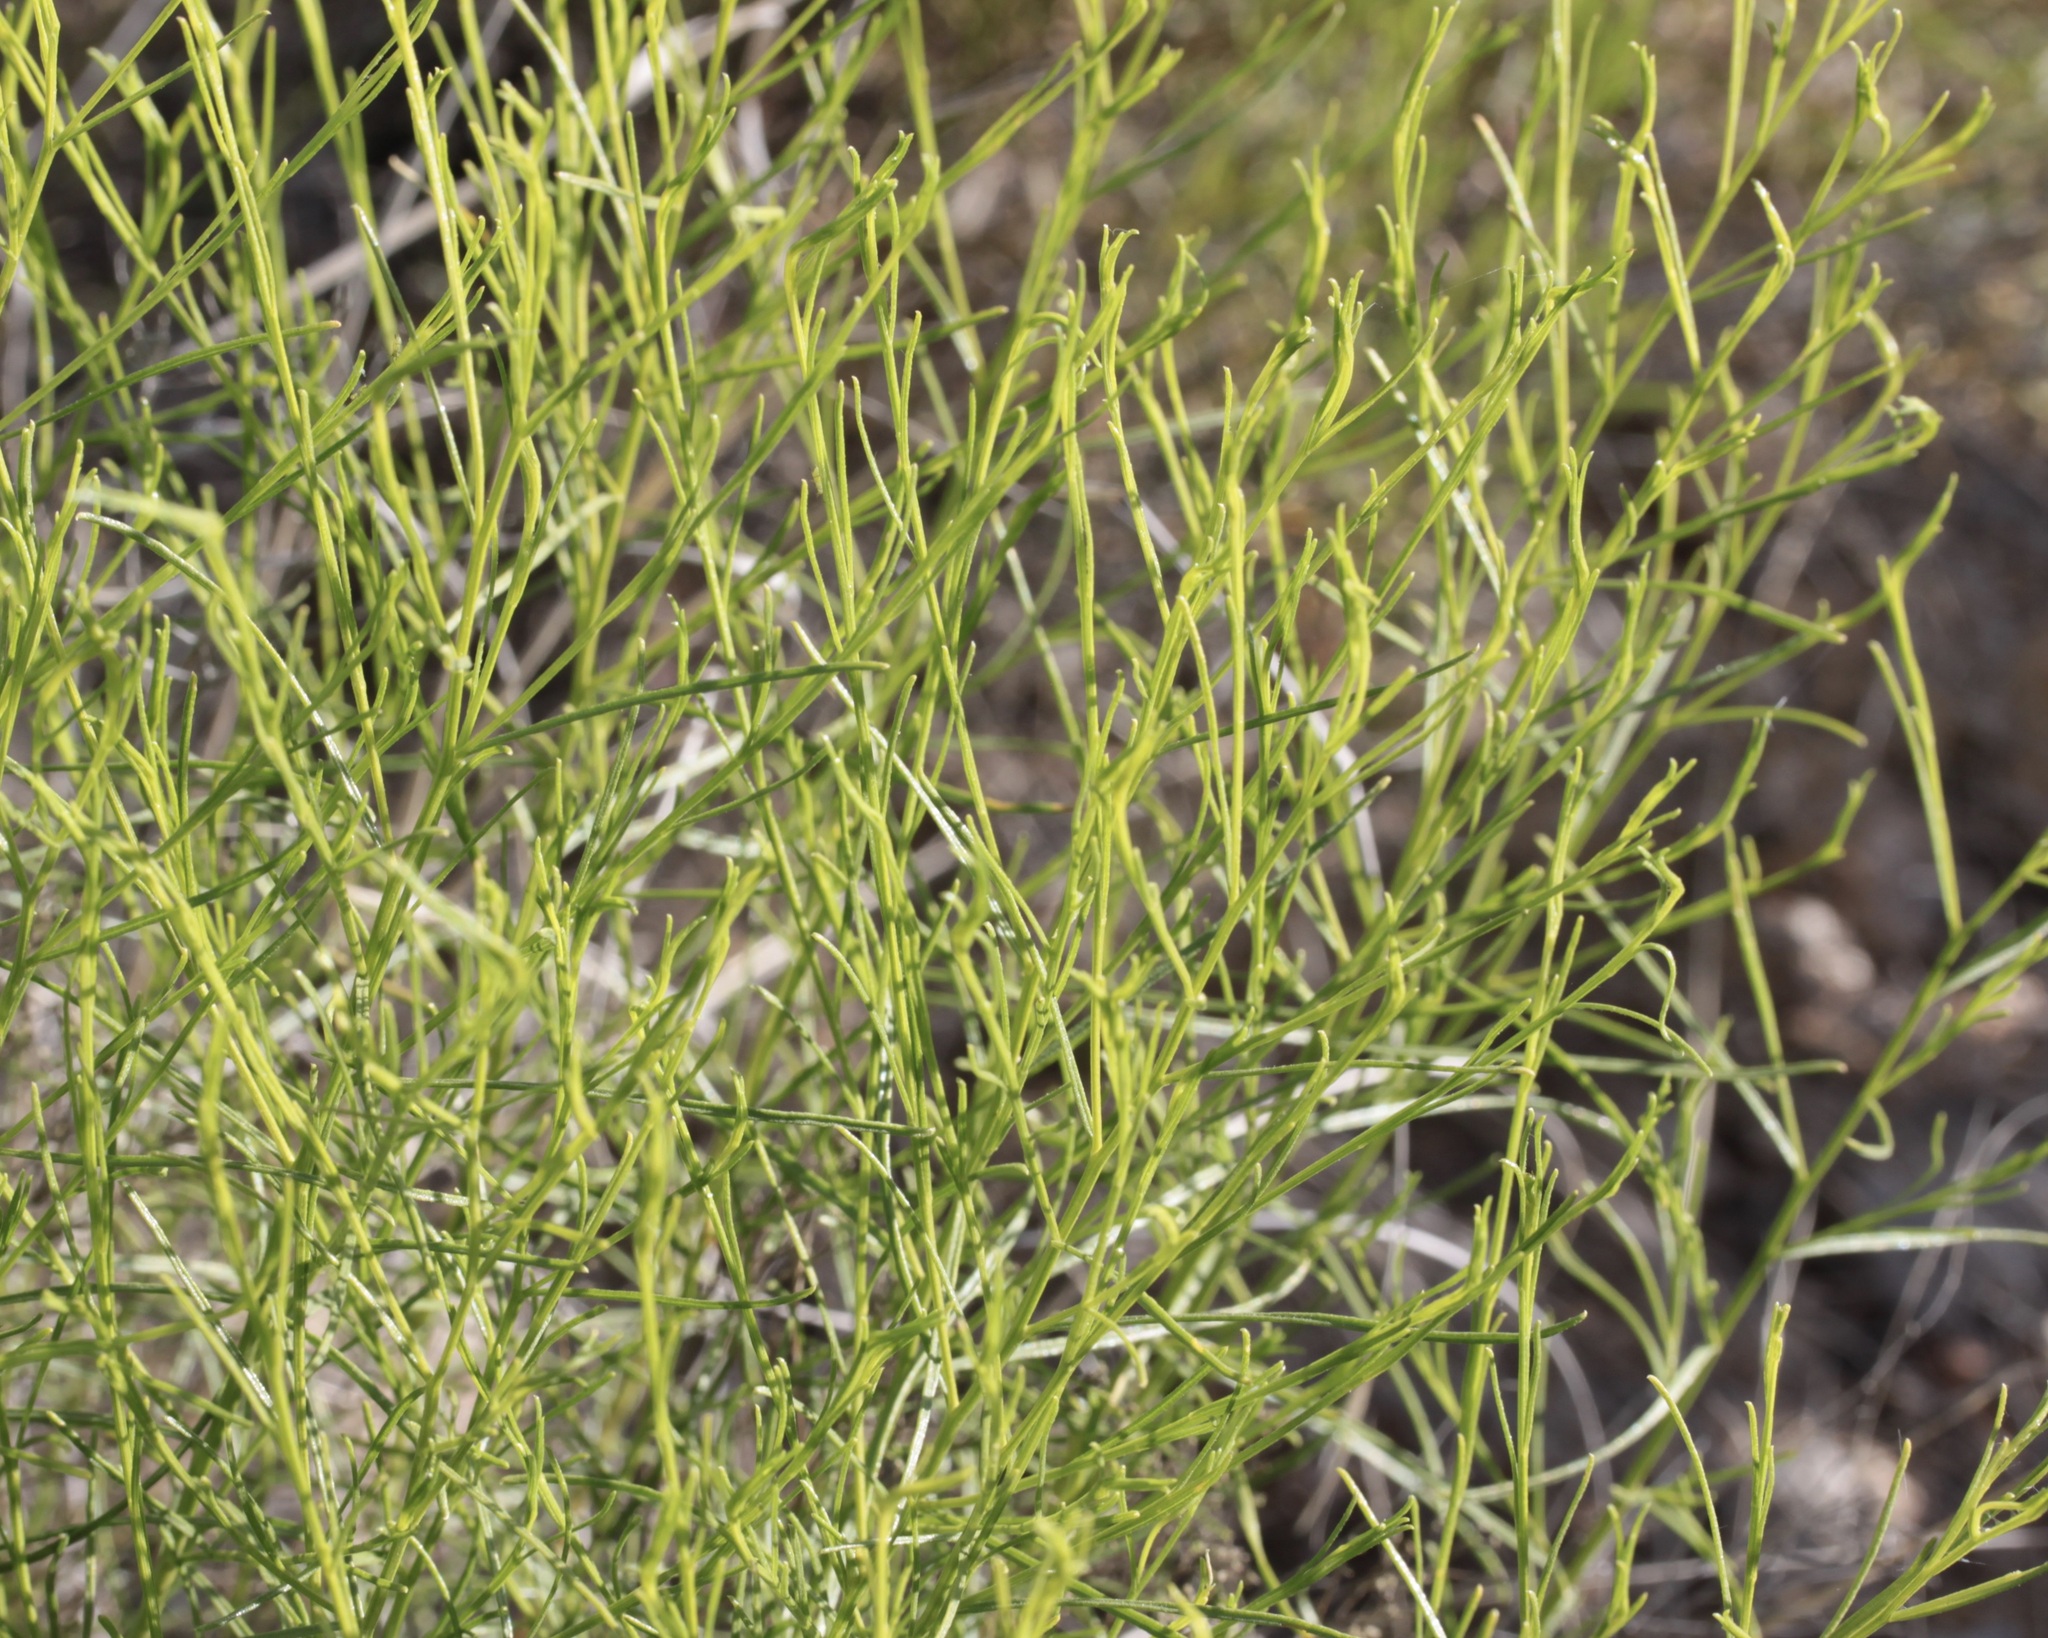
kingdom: Plantae
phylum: Tracheophyta
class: Magnoliopsida
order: Asterales
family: Asteraceae
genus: Gutierrezia
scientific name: Gutierrezia sarothrae
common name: Broom snakeweed
